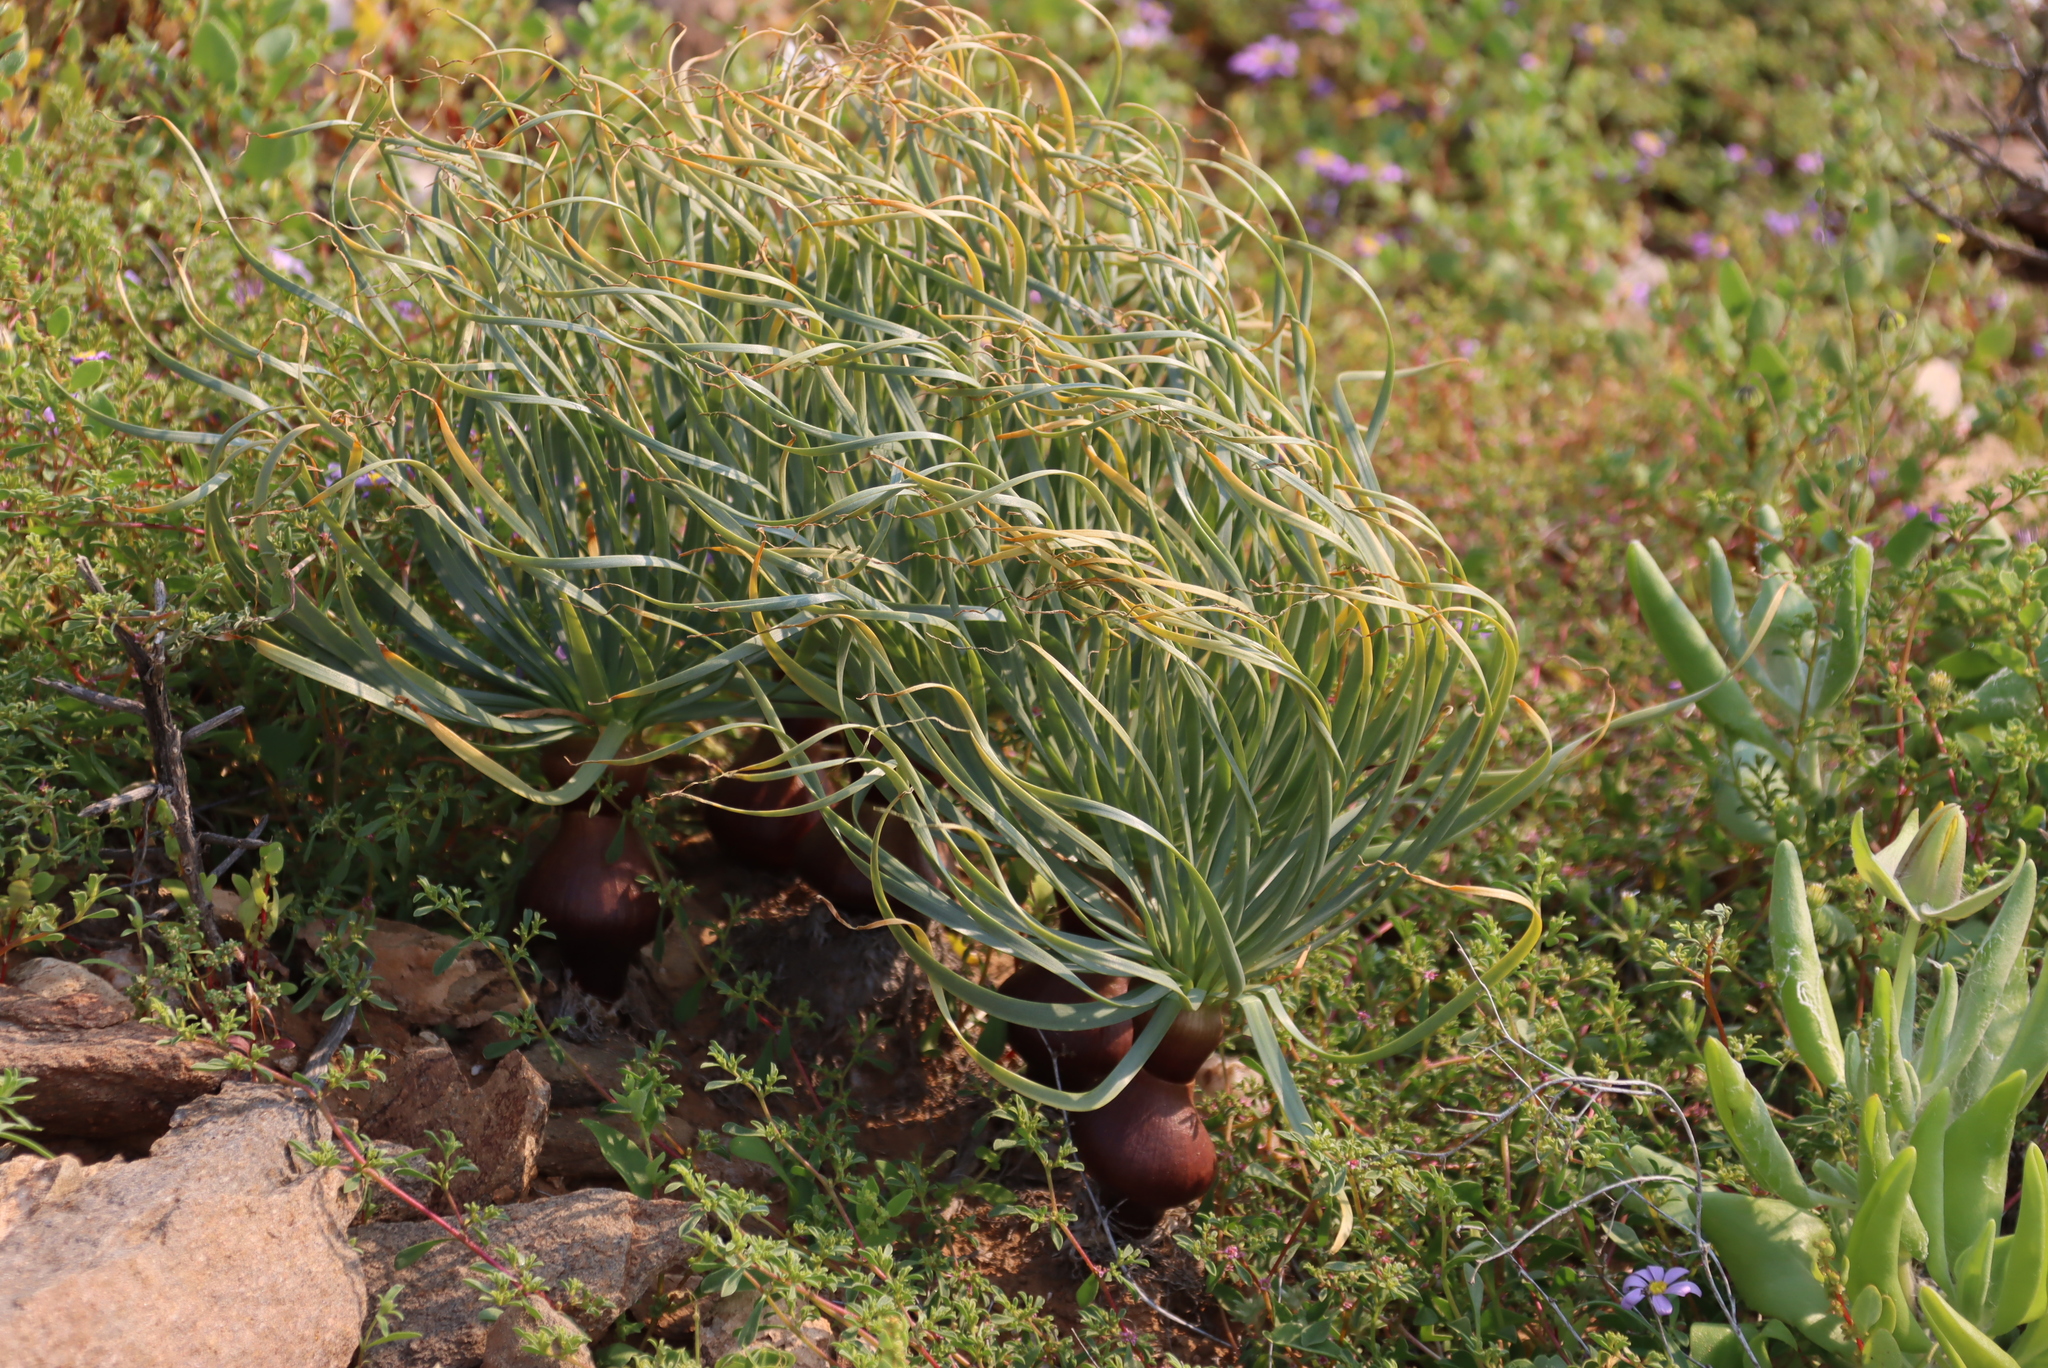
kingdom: Plantae
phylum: Tracheophyta
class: Liliopsida
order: Asparagales
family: Amaryllidaceae
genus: Gethyllis
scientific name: Gethyllis namaquensis
